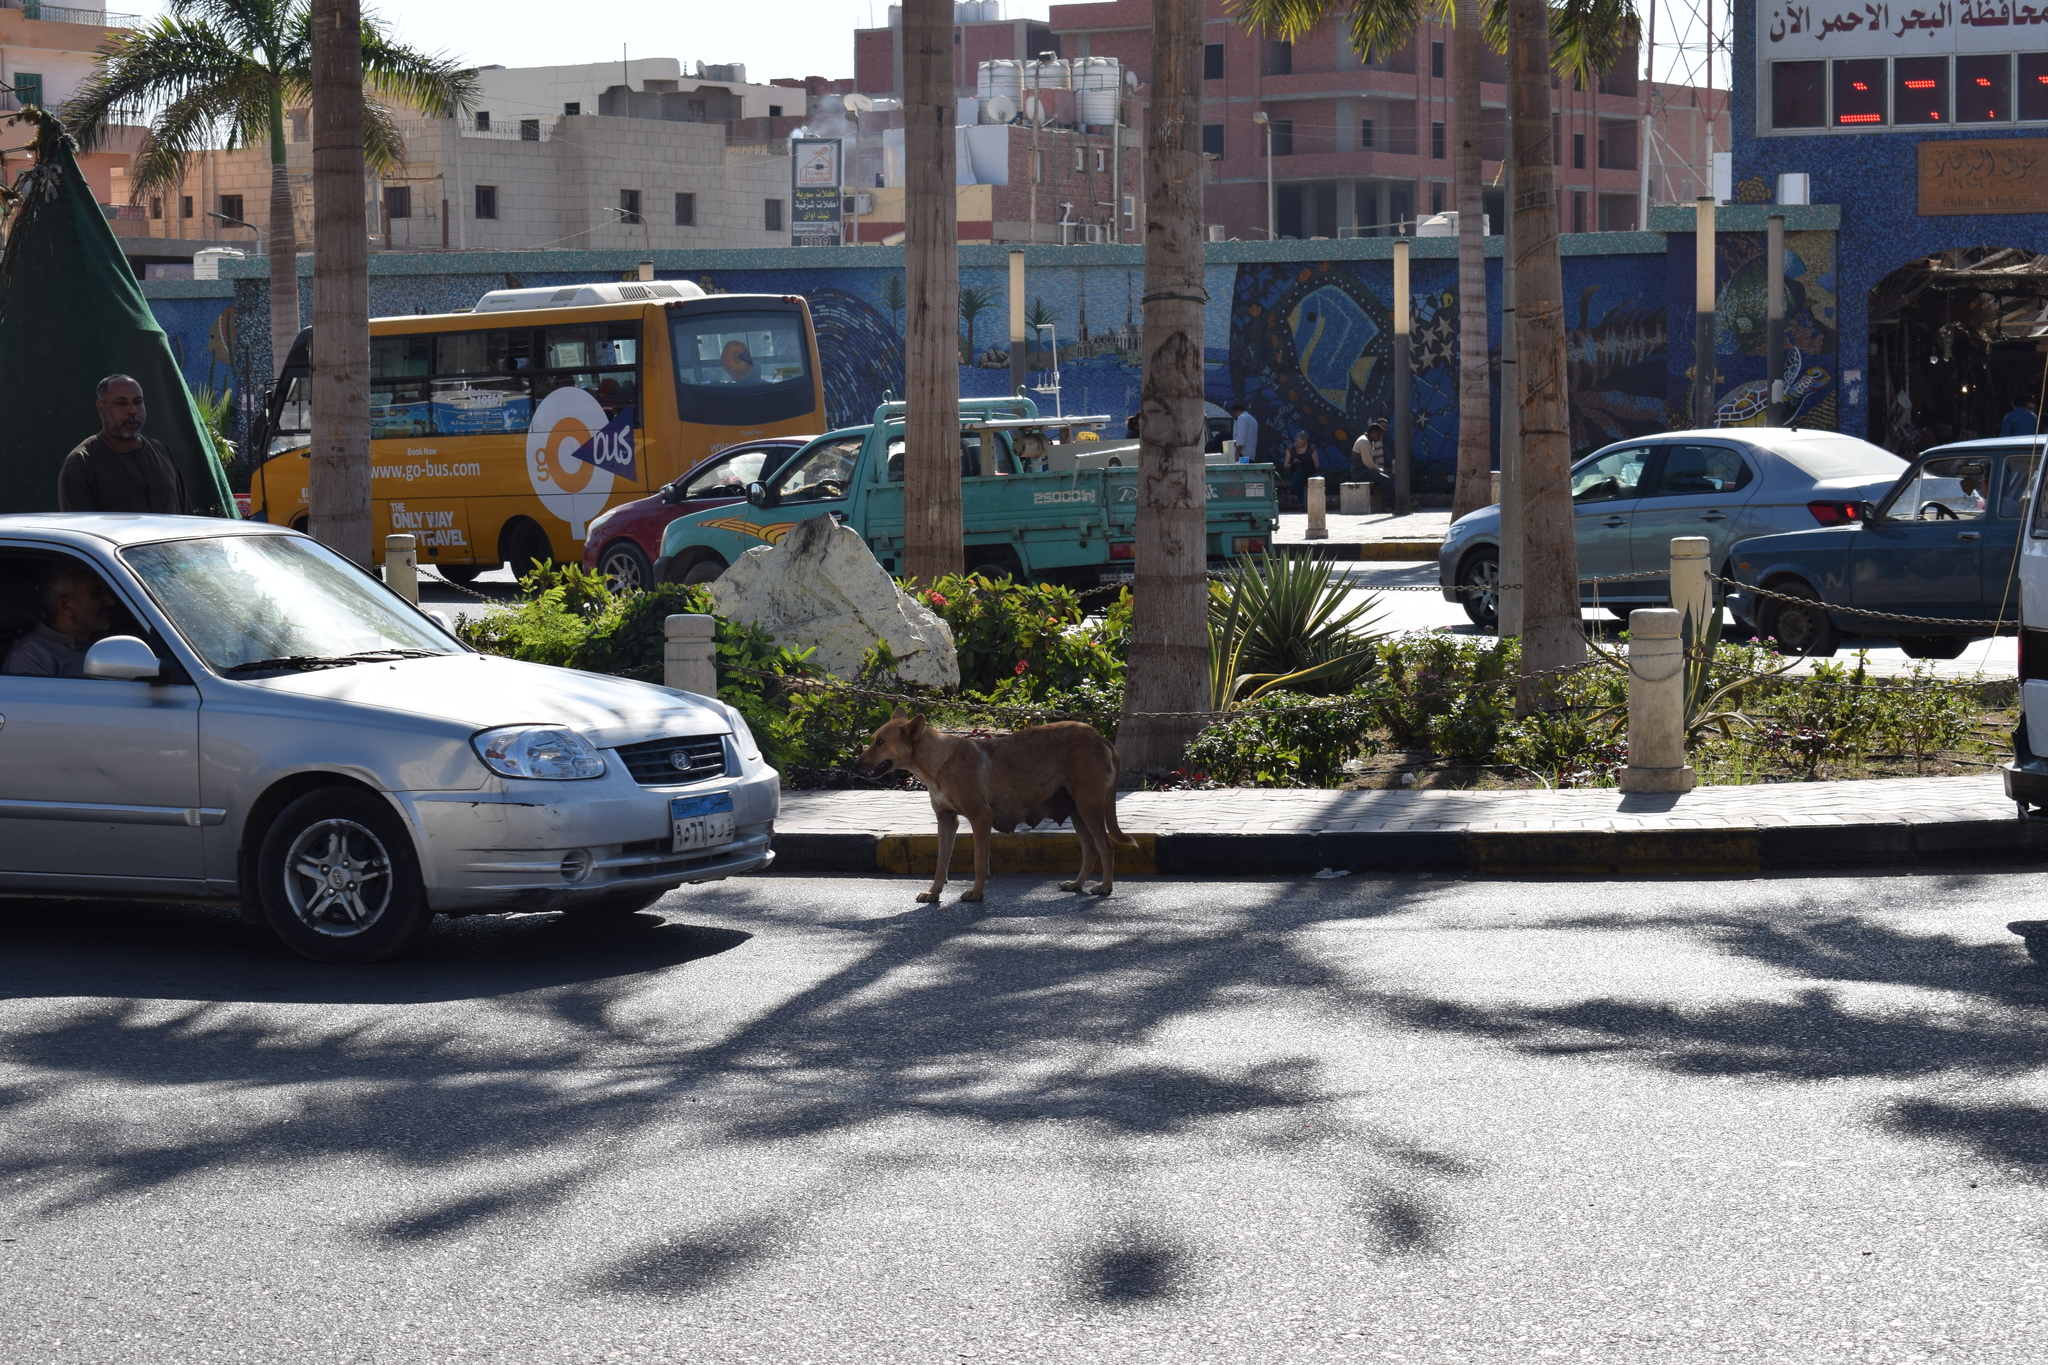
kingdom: Animalia
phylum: Chordata
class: Mammalia
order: Carnivora
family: Canidae
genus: Canis
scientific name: Canis lupus
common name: Gray wolf
